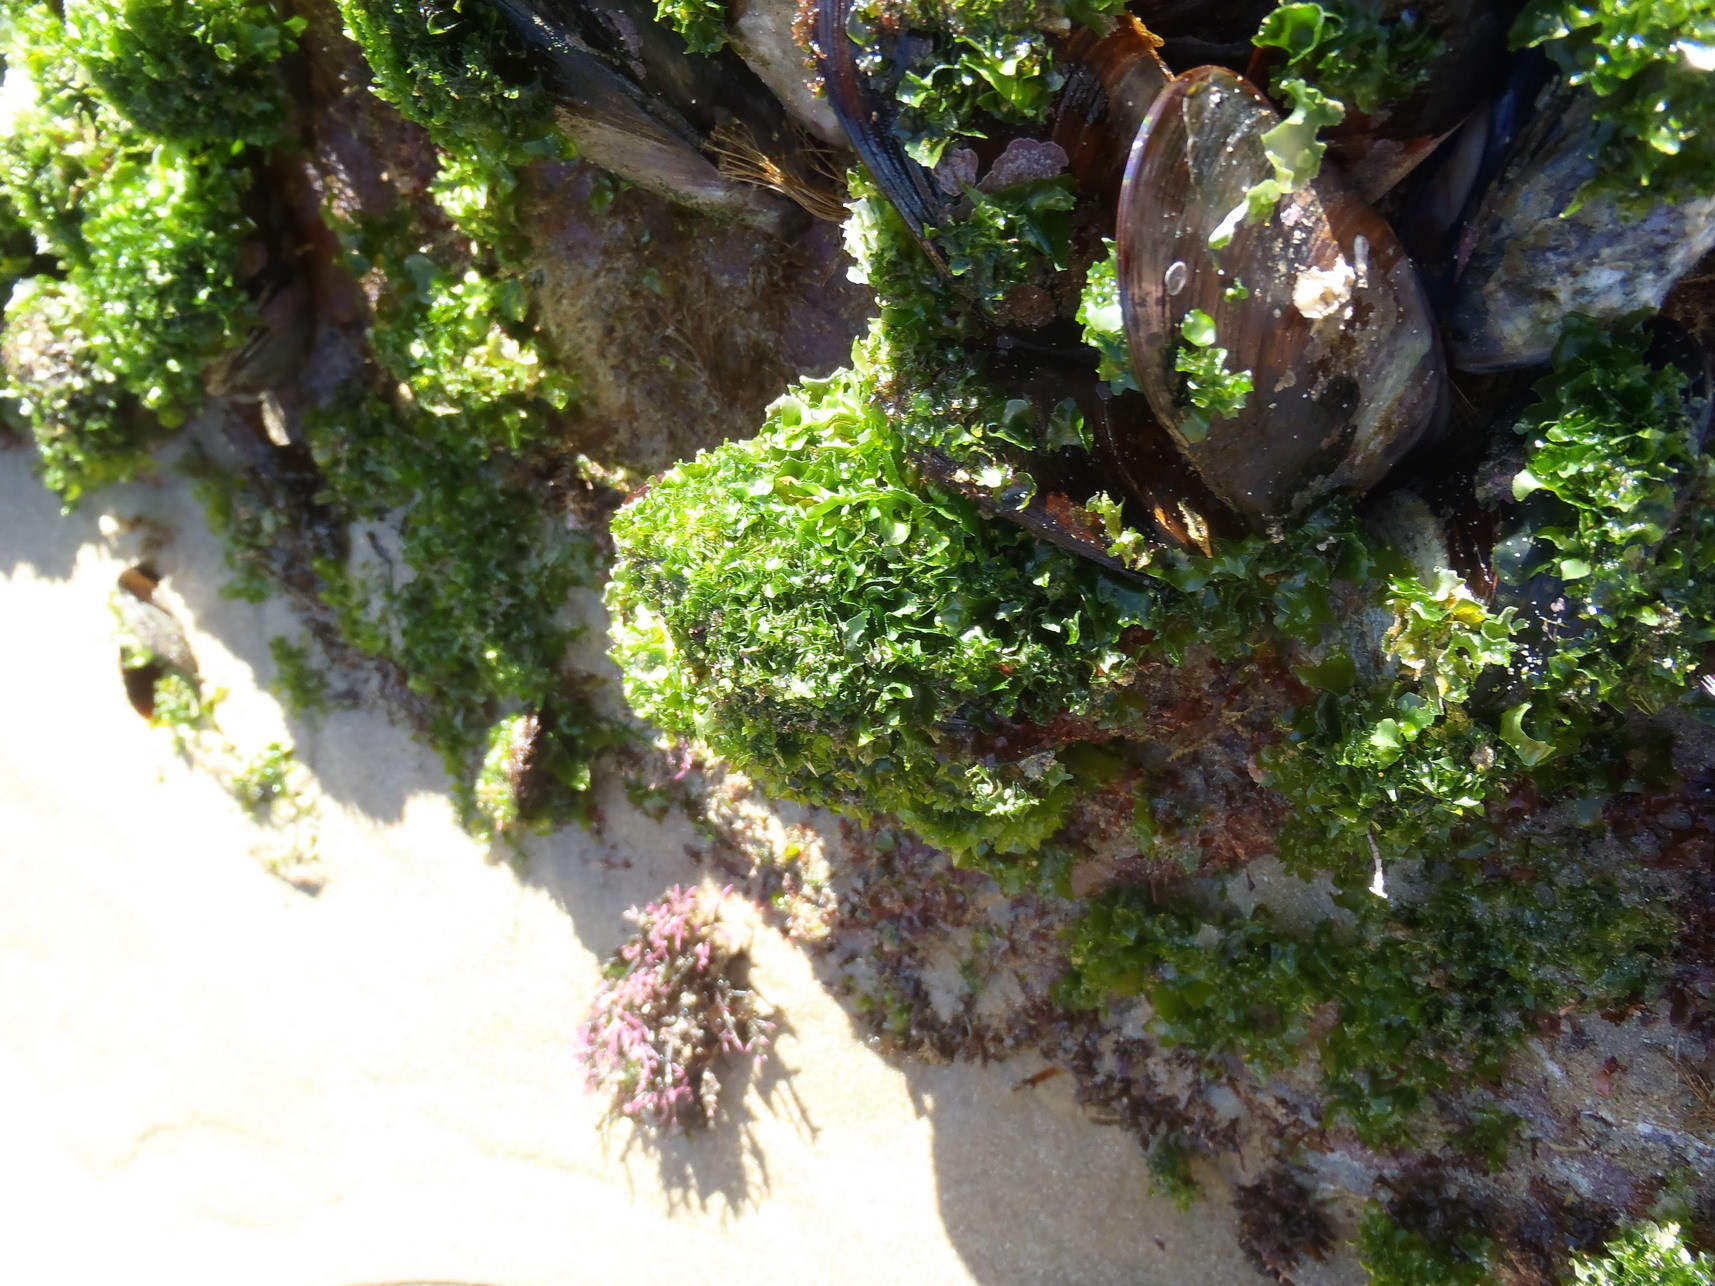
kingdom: Plantae
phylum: Chlorophyta
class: Ulvophyceae
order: Ulvales
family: Ulvaceae
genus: Ulva
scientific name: Ulva rigida
